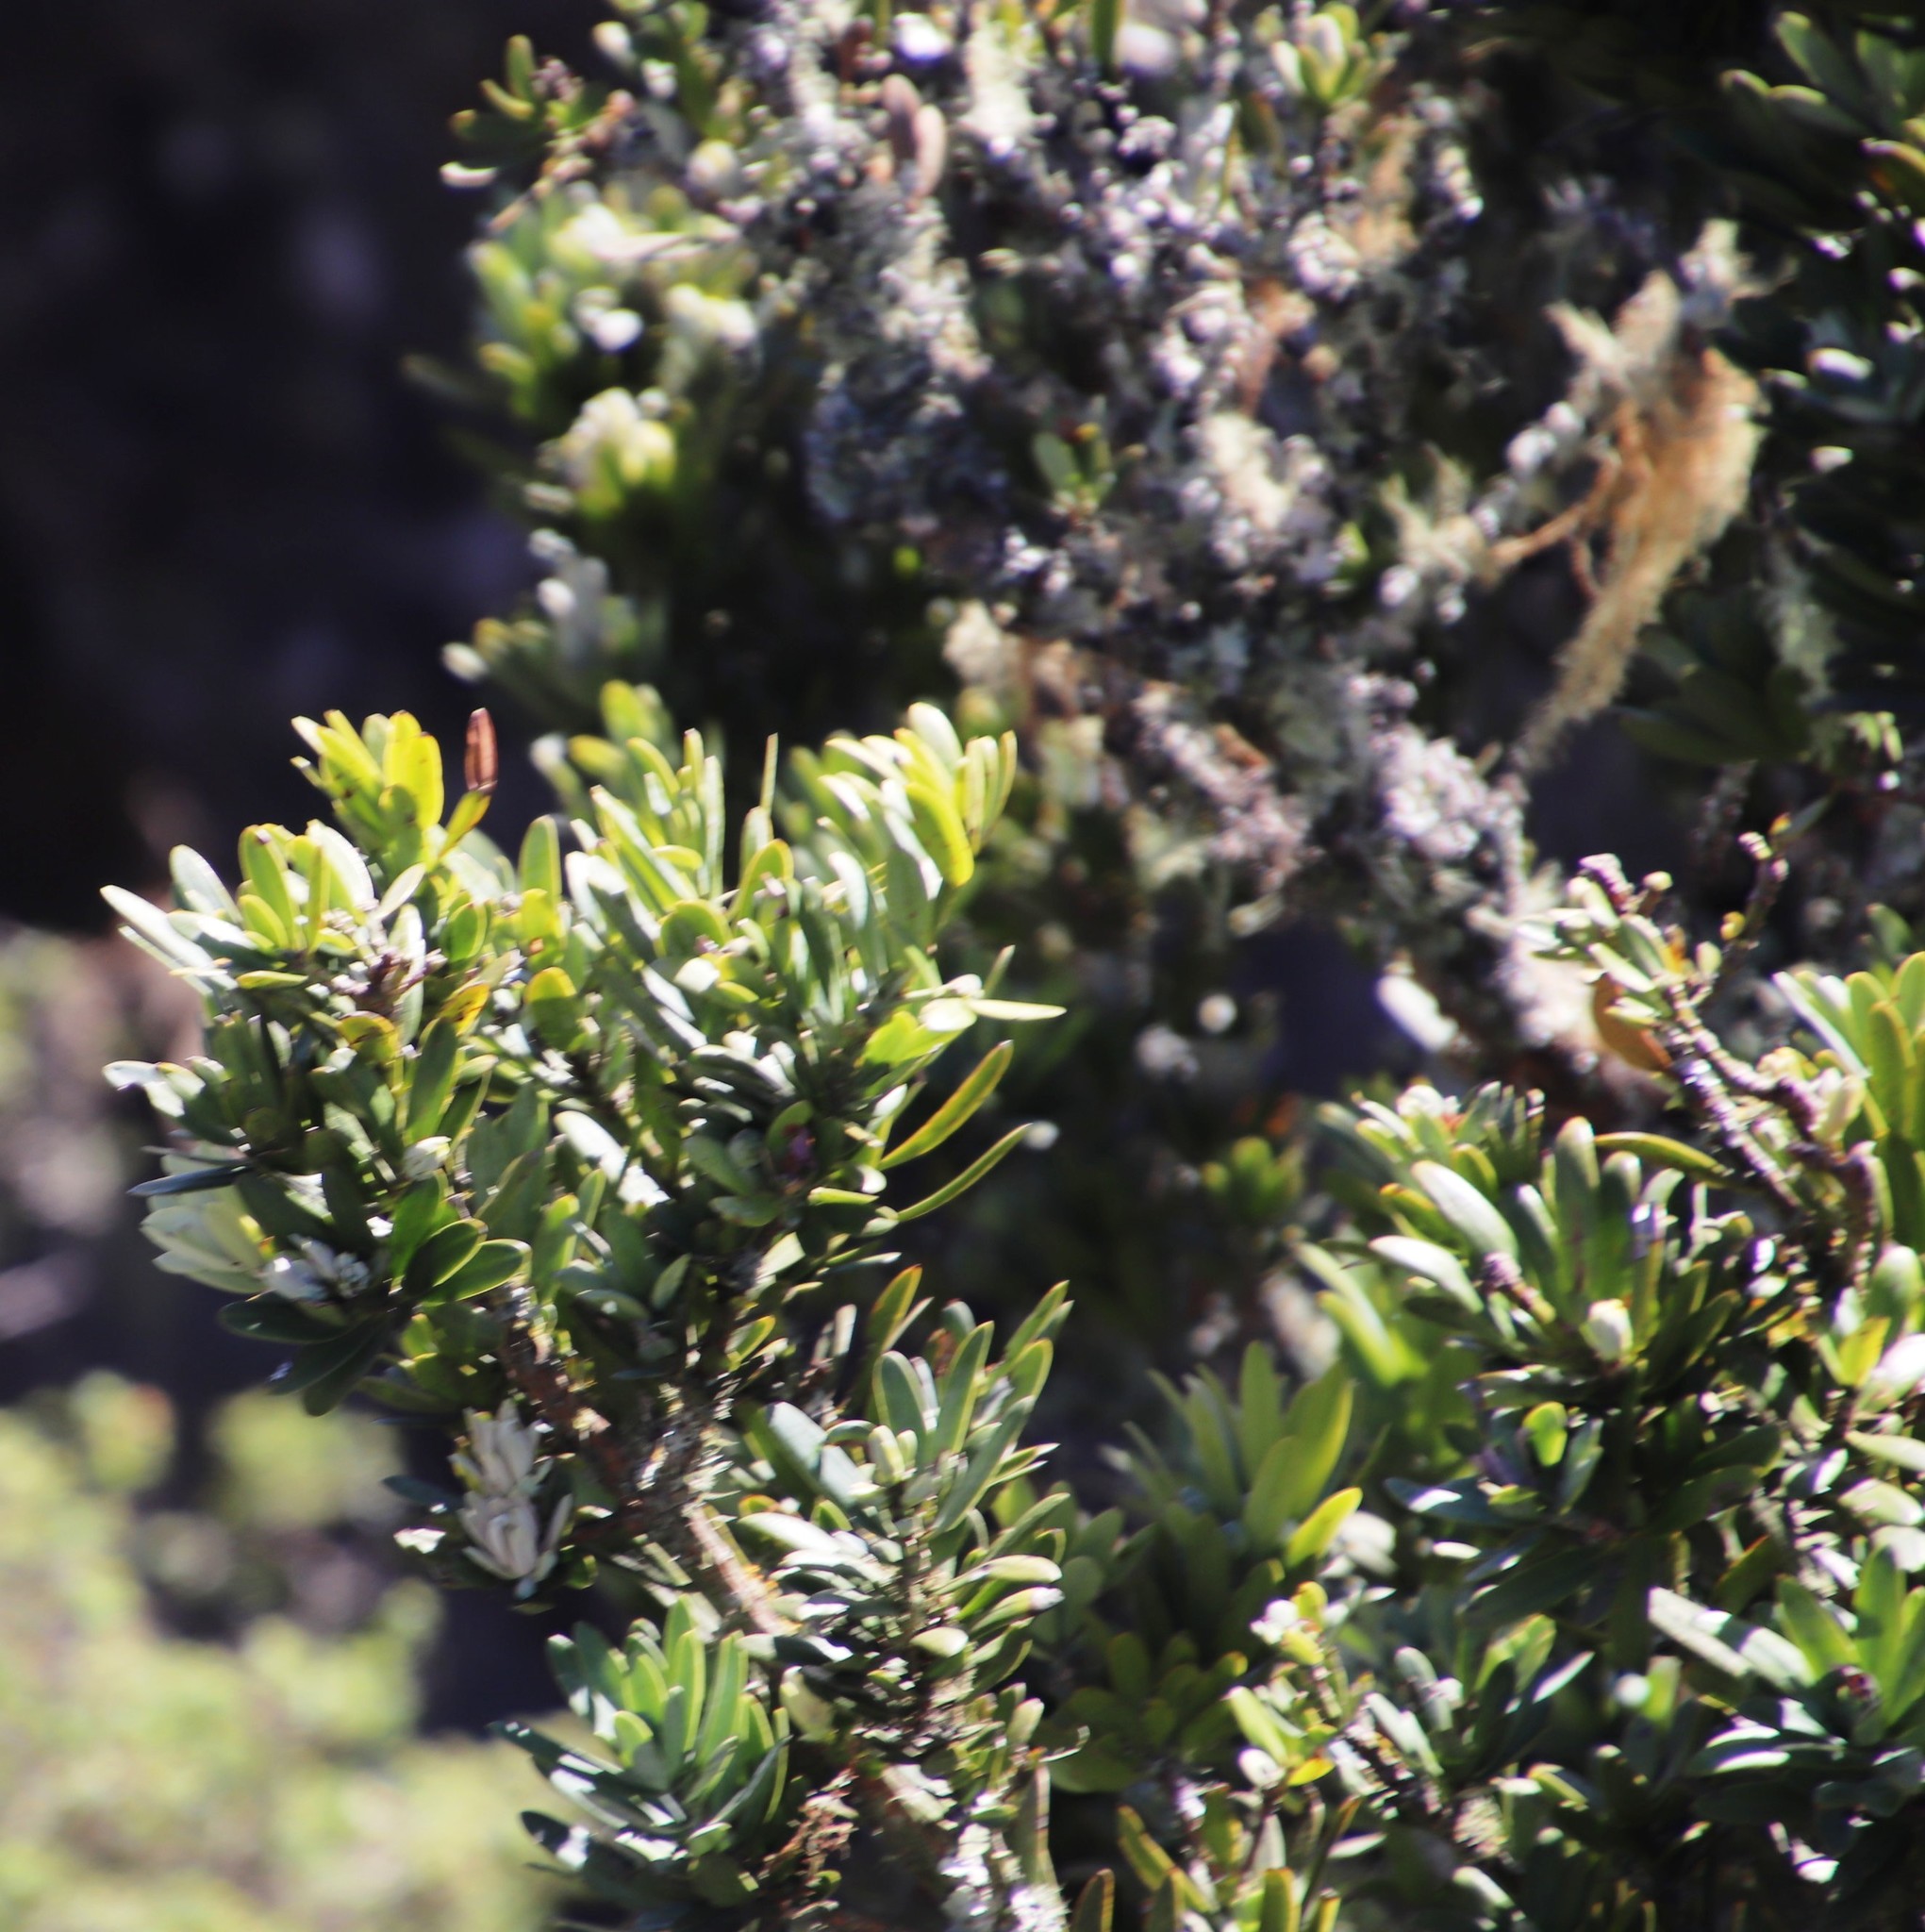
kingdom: Plantae
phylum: Tracheophyta
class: Pinopsida
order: Pinales
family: Podocarpaceae
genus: Podocarpus
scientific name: Podocarpus latifolius
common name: True yellowwood
